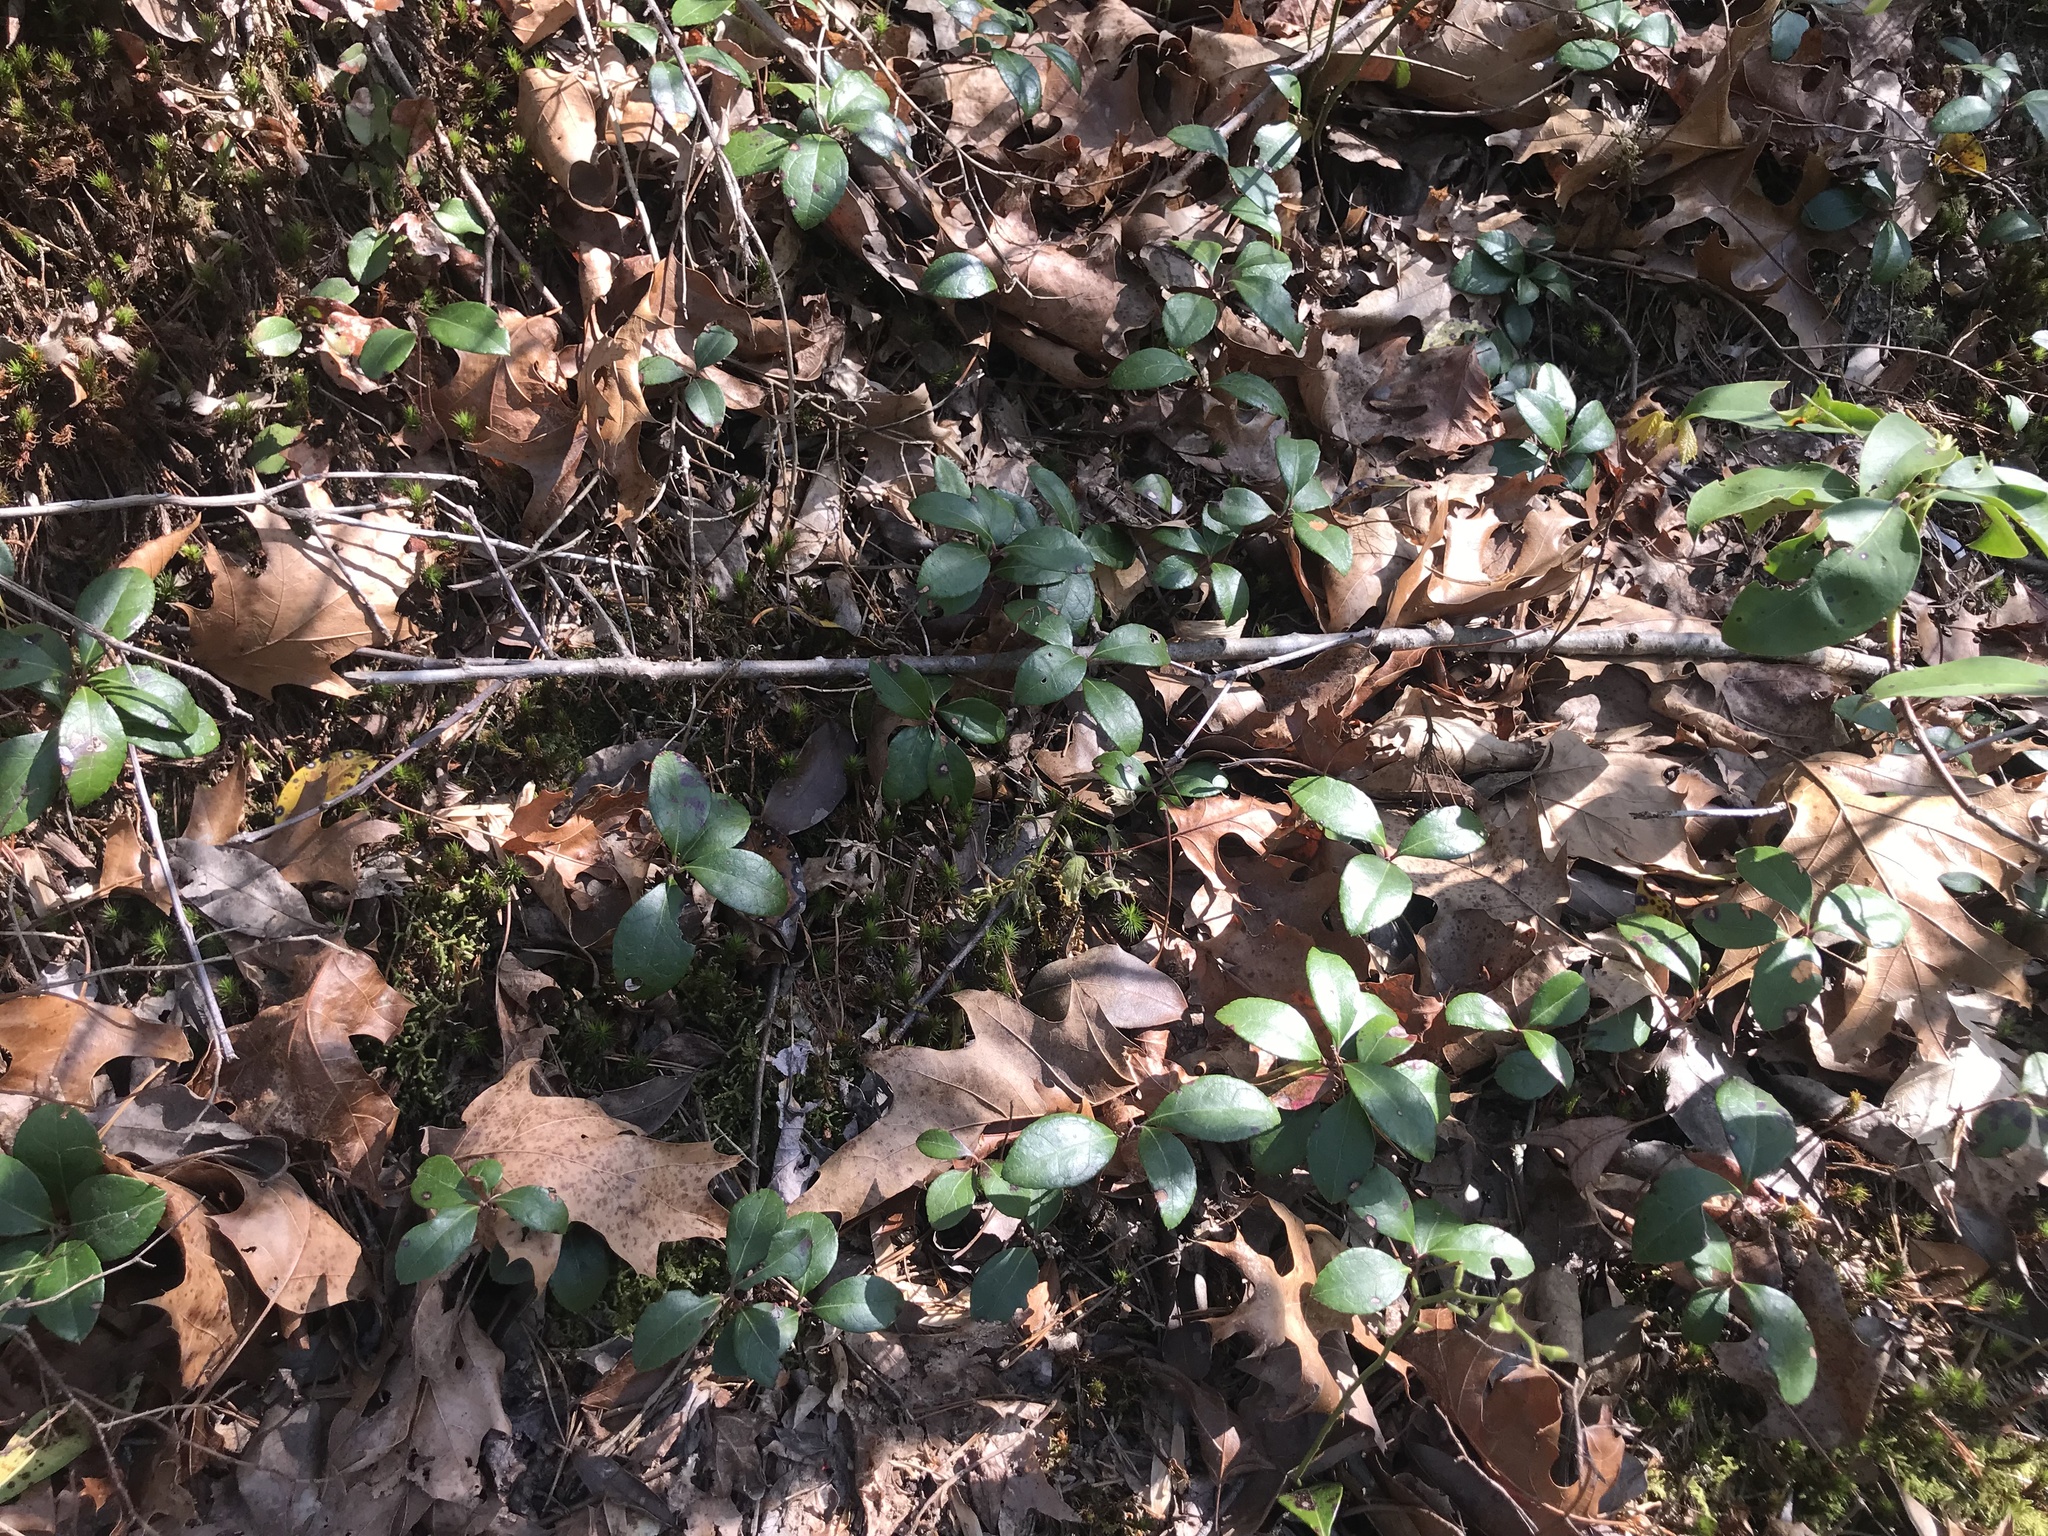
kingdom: Plantae
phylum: Tracheophyta
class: Magnoliopsida
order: Ericales
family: Ericaceae
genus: Gaultheria
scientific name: Gaultheria procumbens
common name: Checkerberry
